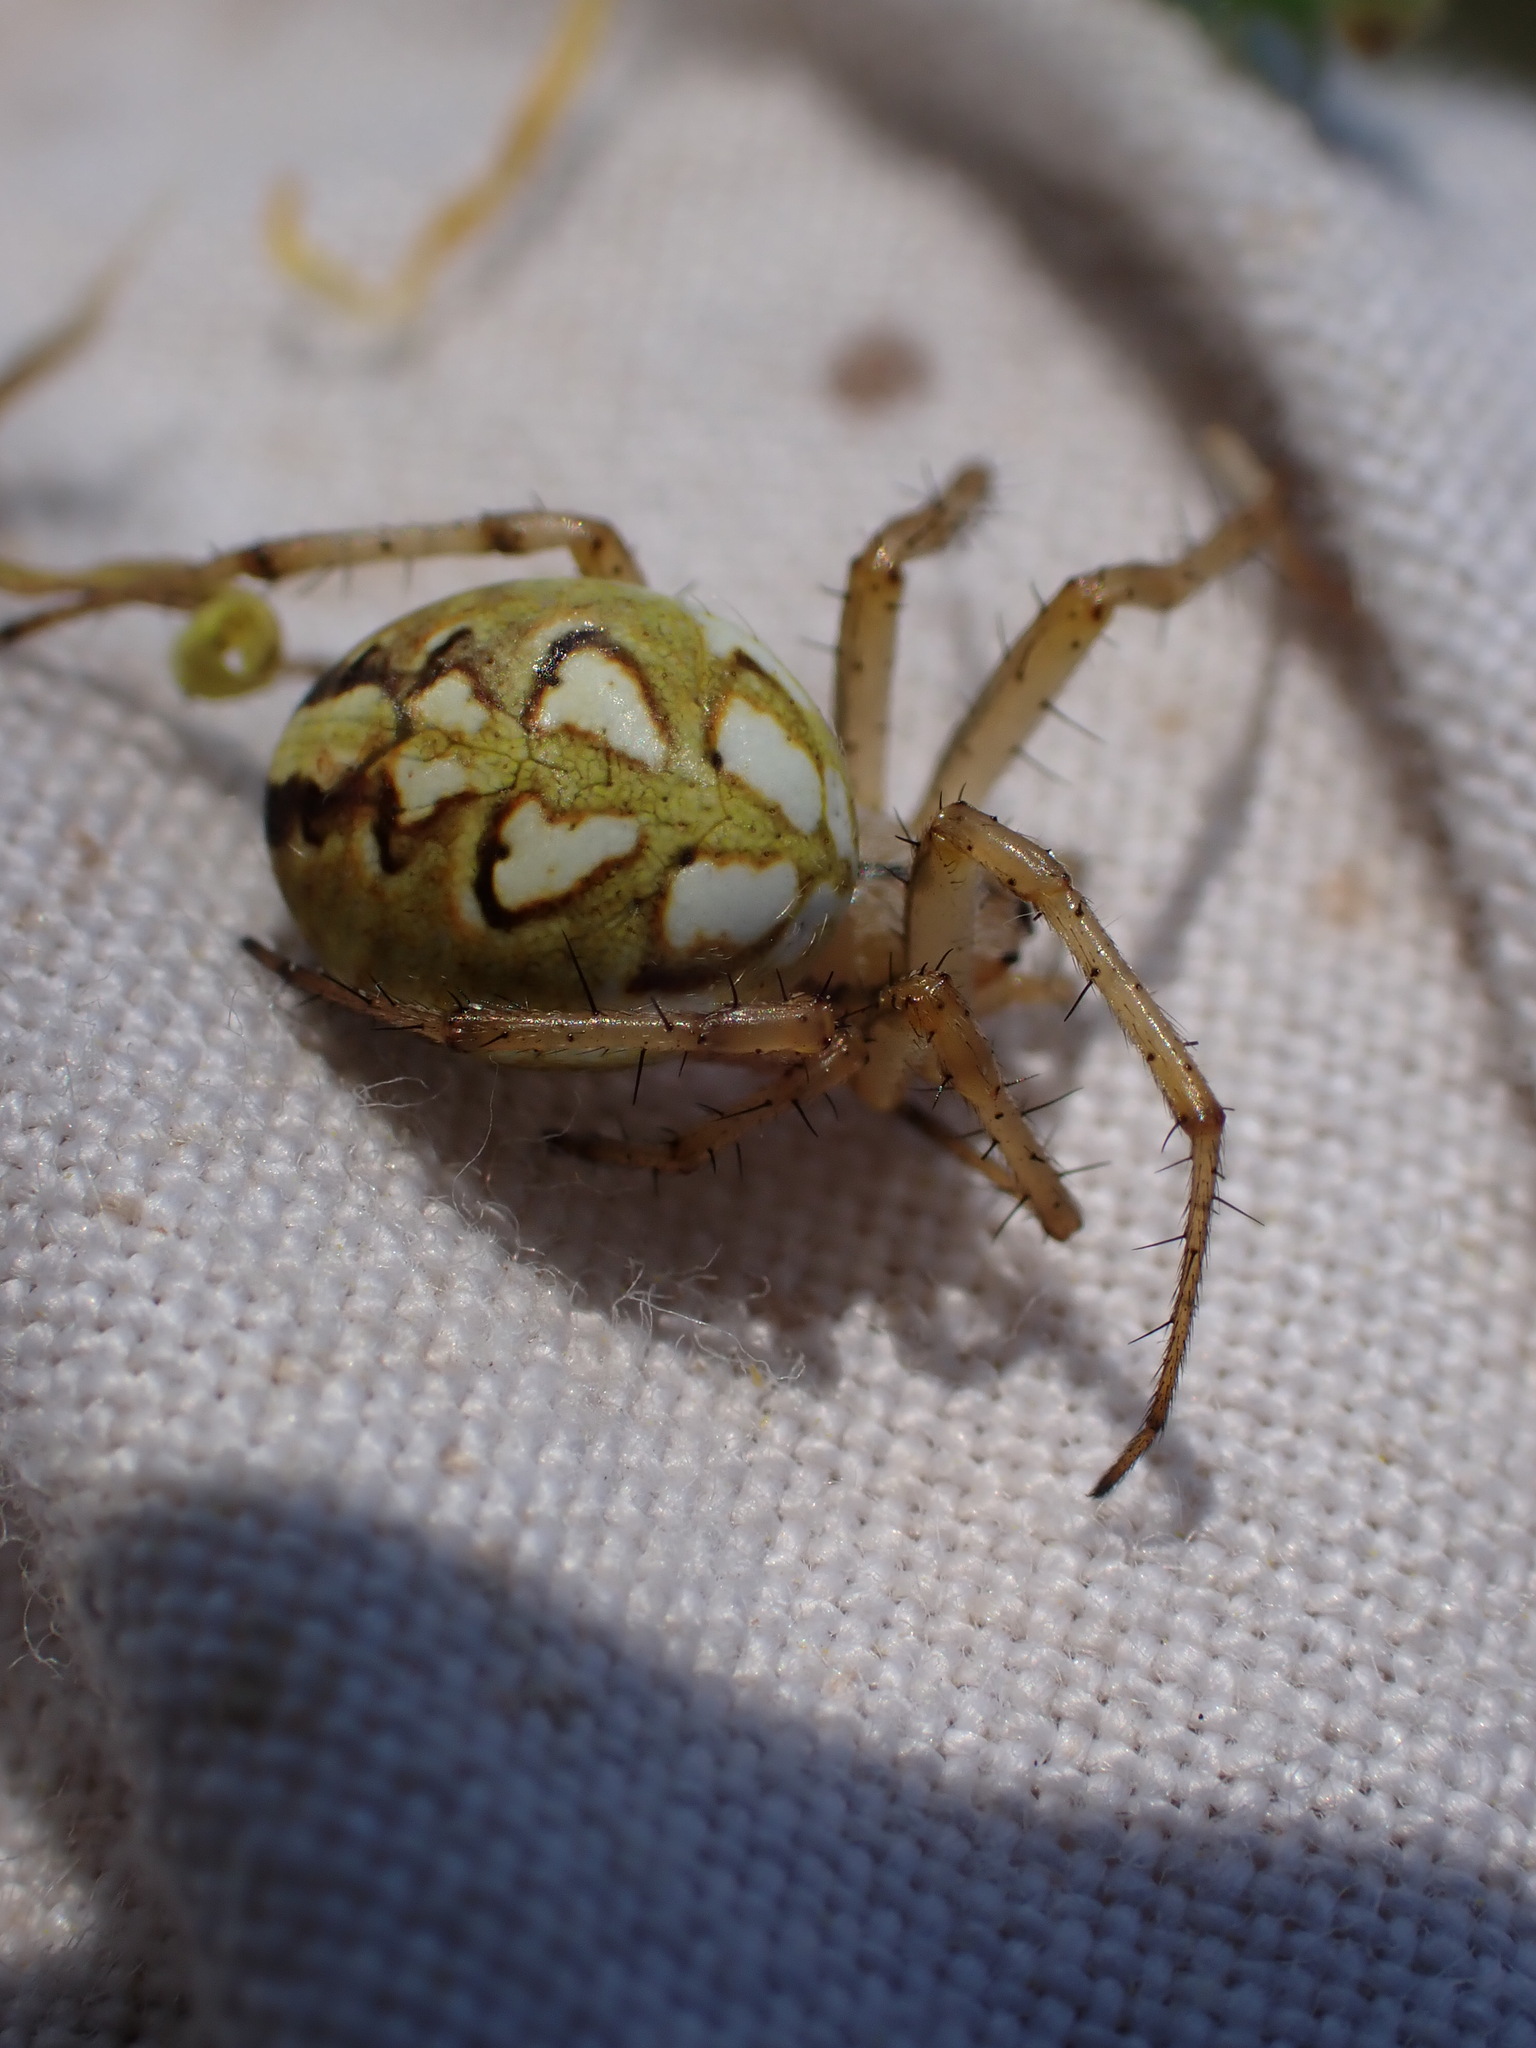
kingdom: Animalia
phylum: Arthropoda
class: Arachnida
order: Araneae
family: Araneidae
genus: Neoscona
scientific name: Neoscona adianta
